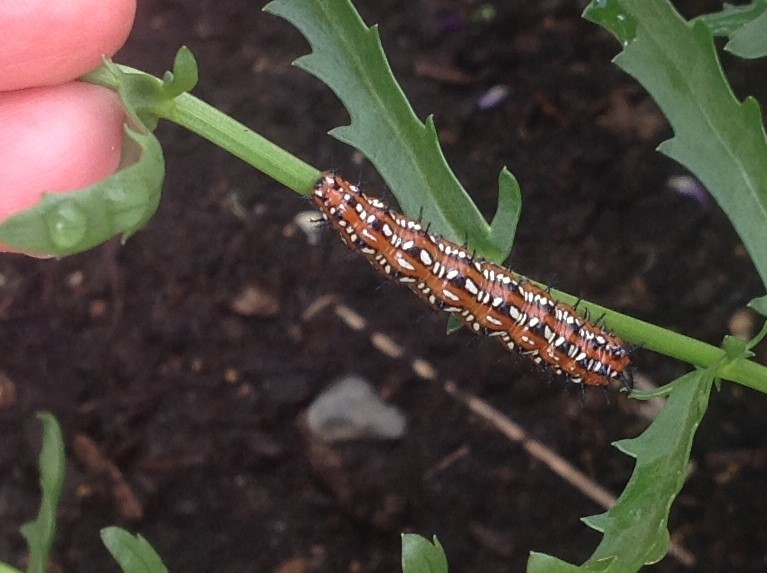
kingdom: Animalia
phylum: Arthropoda
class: Insecta
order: Lepidoptera
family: Nymphalidae
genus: Euptoieta
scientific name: Euptoieta claudia
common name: Variegated fritillary
